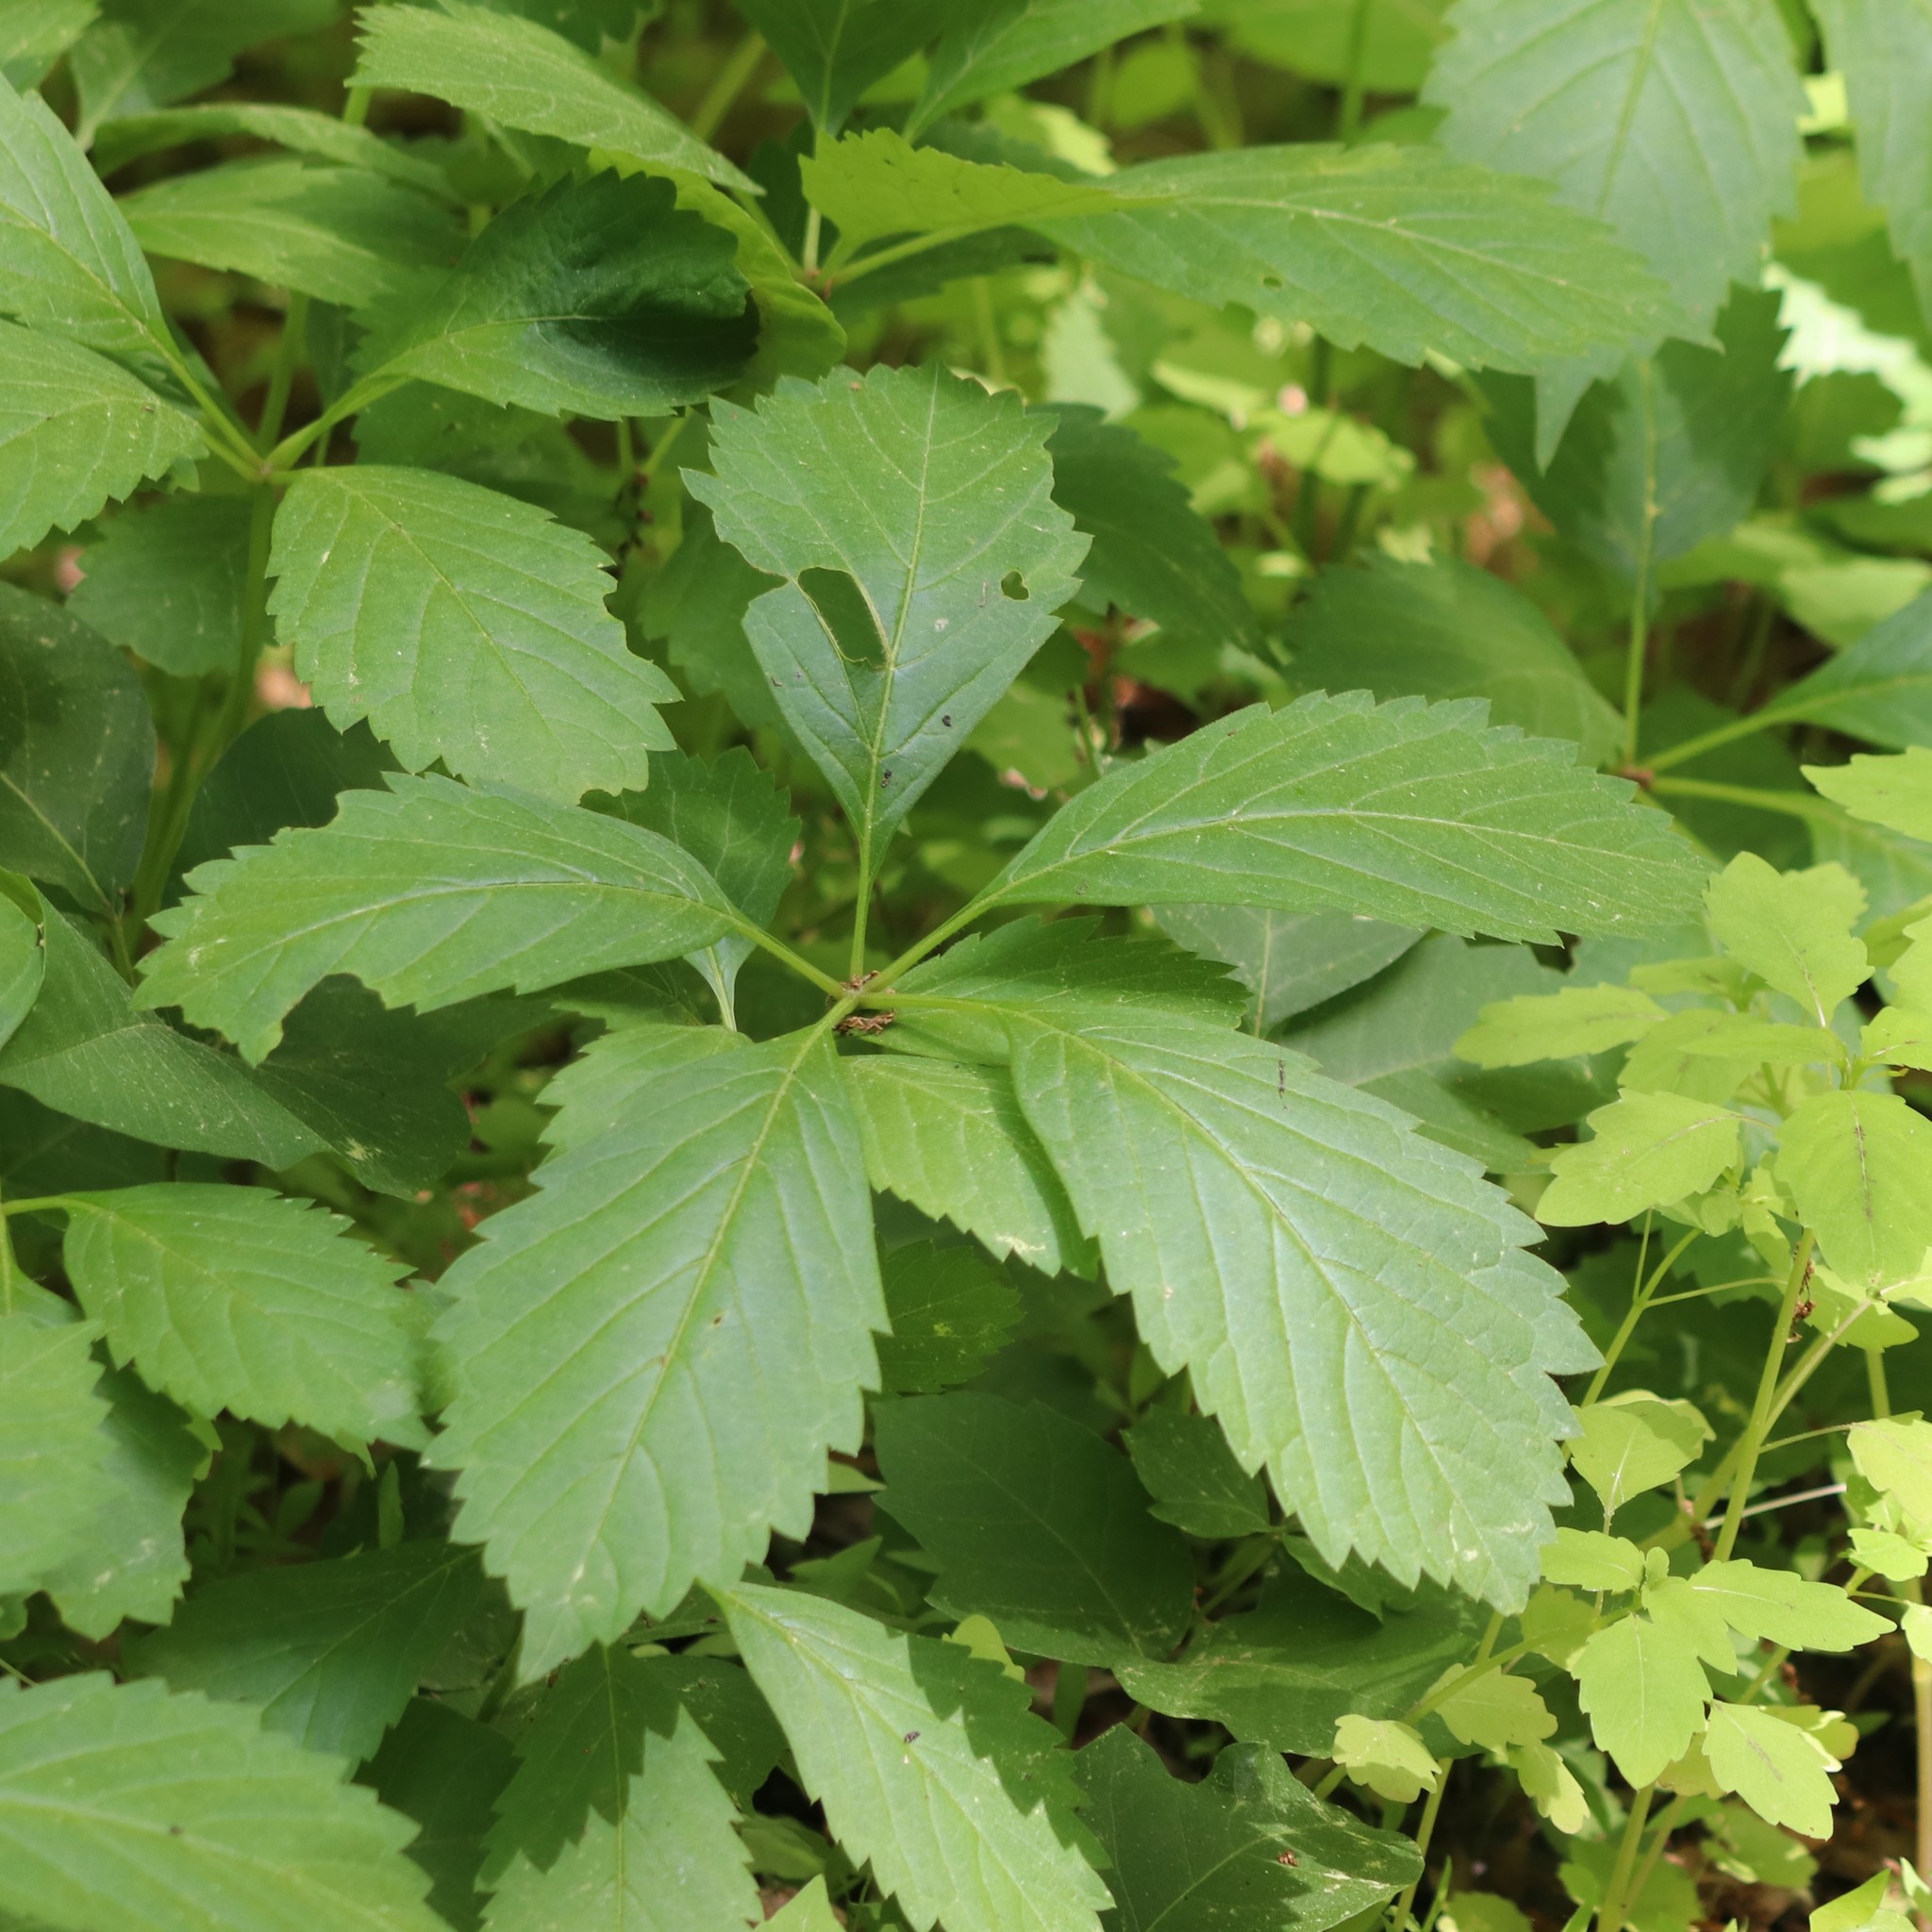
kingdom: Plantae
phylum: Tracheophyta
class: Magnoliopsida
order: Vitales
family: Vitaceae
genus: Parthenocissus
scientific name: Parthenocissus inserta
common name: False virginia-creeper
